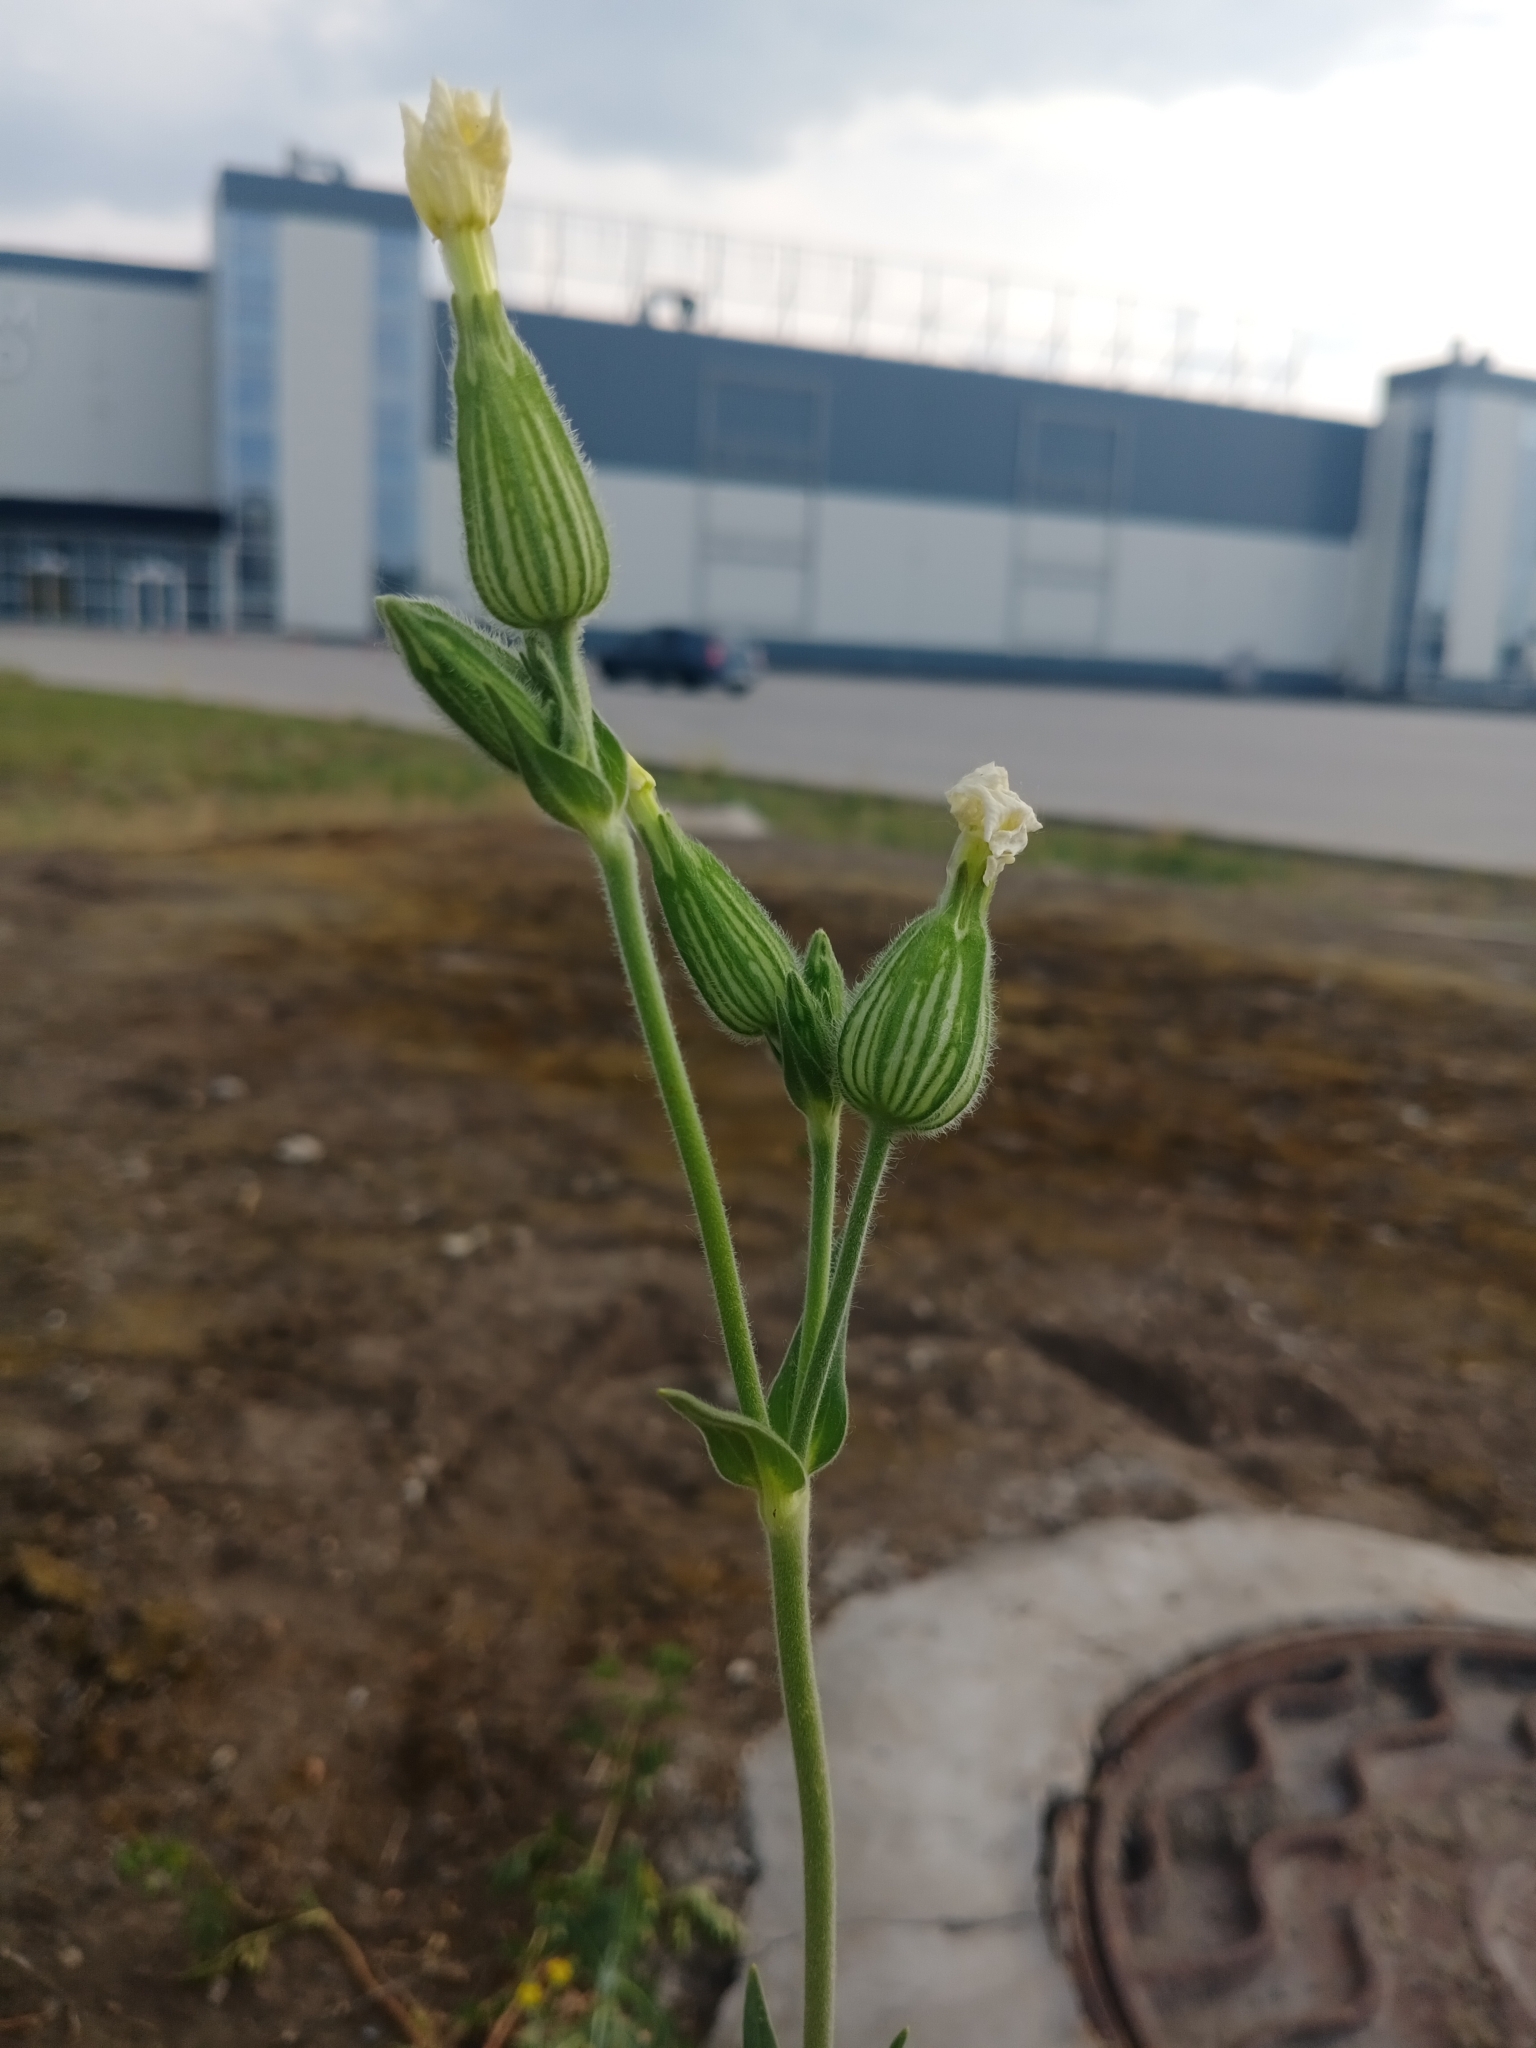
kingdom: Plantae
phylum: Tracheophyta
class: Magnoliopsida
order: Caryophyllales
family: Caryophyllaceae
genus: Silene
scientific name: Silene latifolia
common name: White campion
